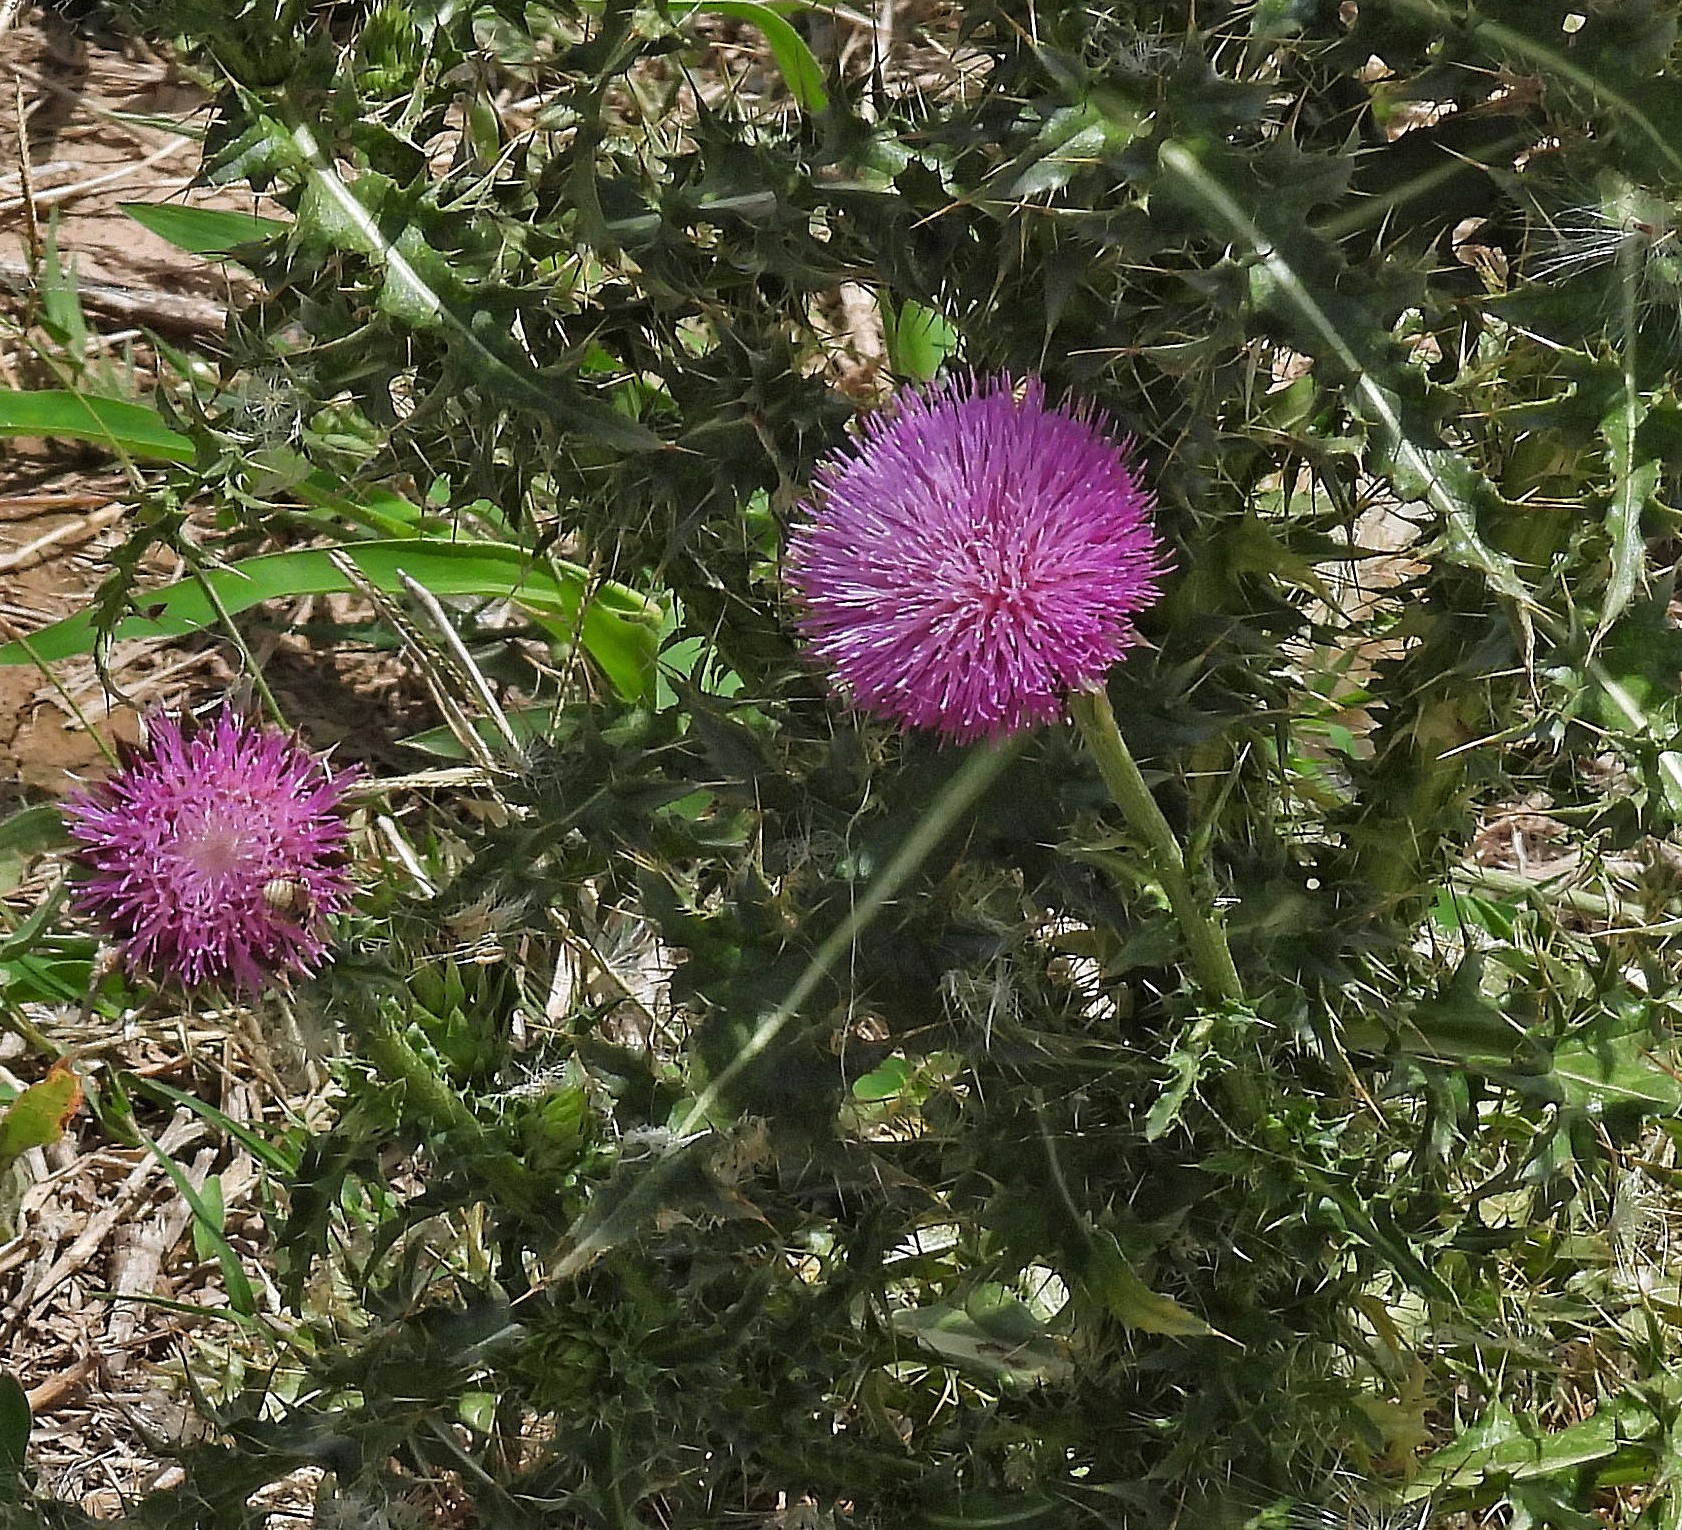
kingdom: Plantae
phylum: Tracheophyta
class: Magnoliopsida
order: Asterales
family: Asteraceae
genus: Carduus
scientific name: Carduus nutans
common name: Musk thistle
